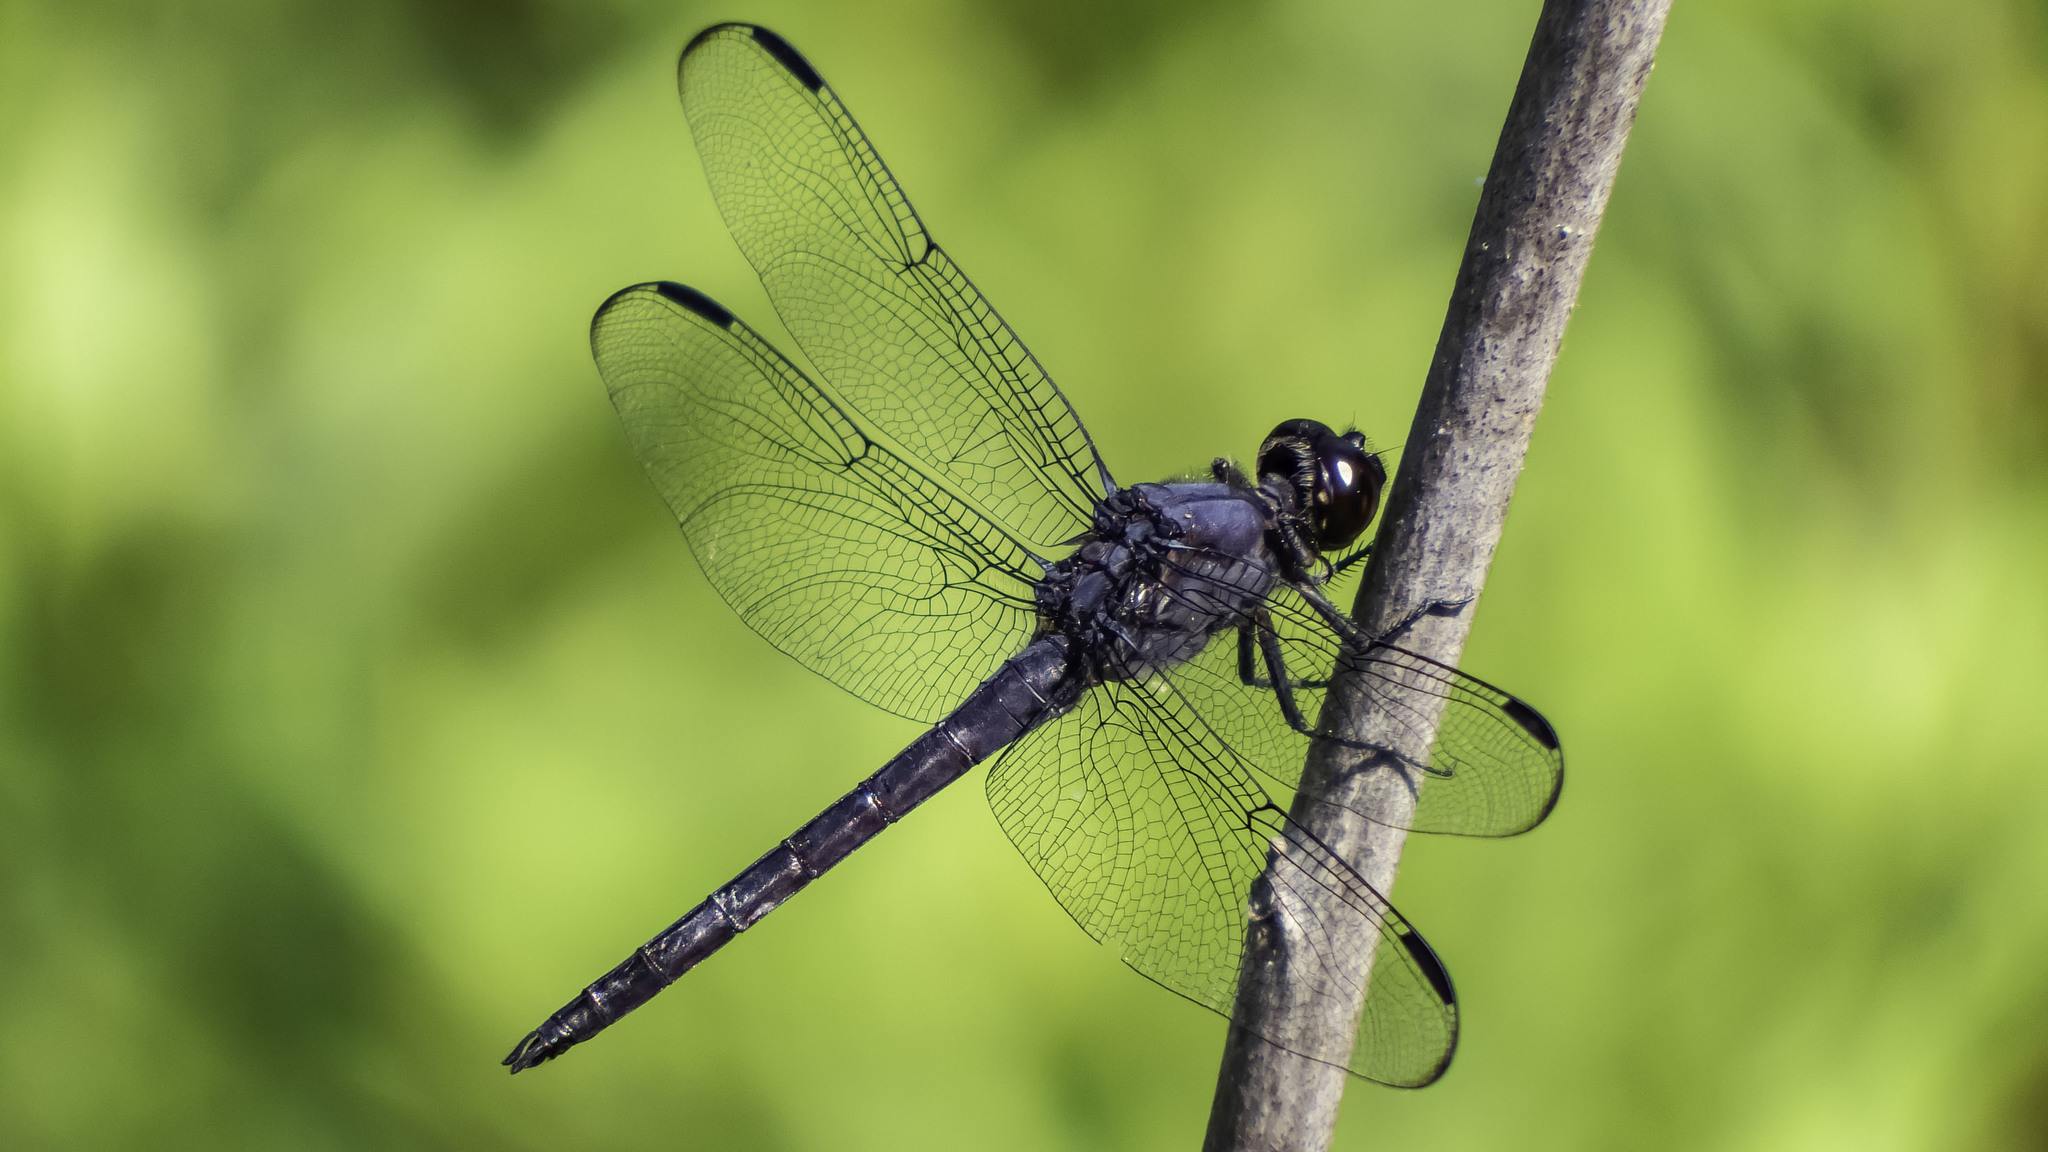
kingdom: Animalia
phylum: Arthropoda
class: Insecta
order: Odonata
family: Libellulidae
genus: Libellula
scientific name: Libellula incesta
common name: Slaty skimmer
